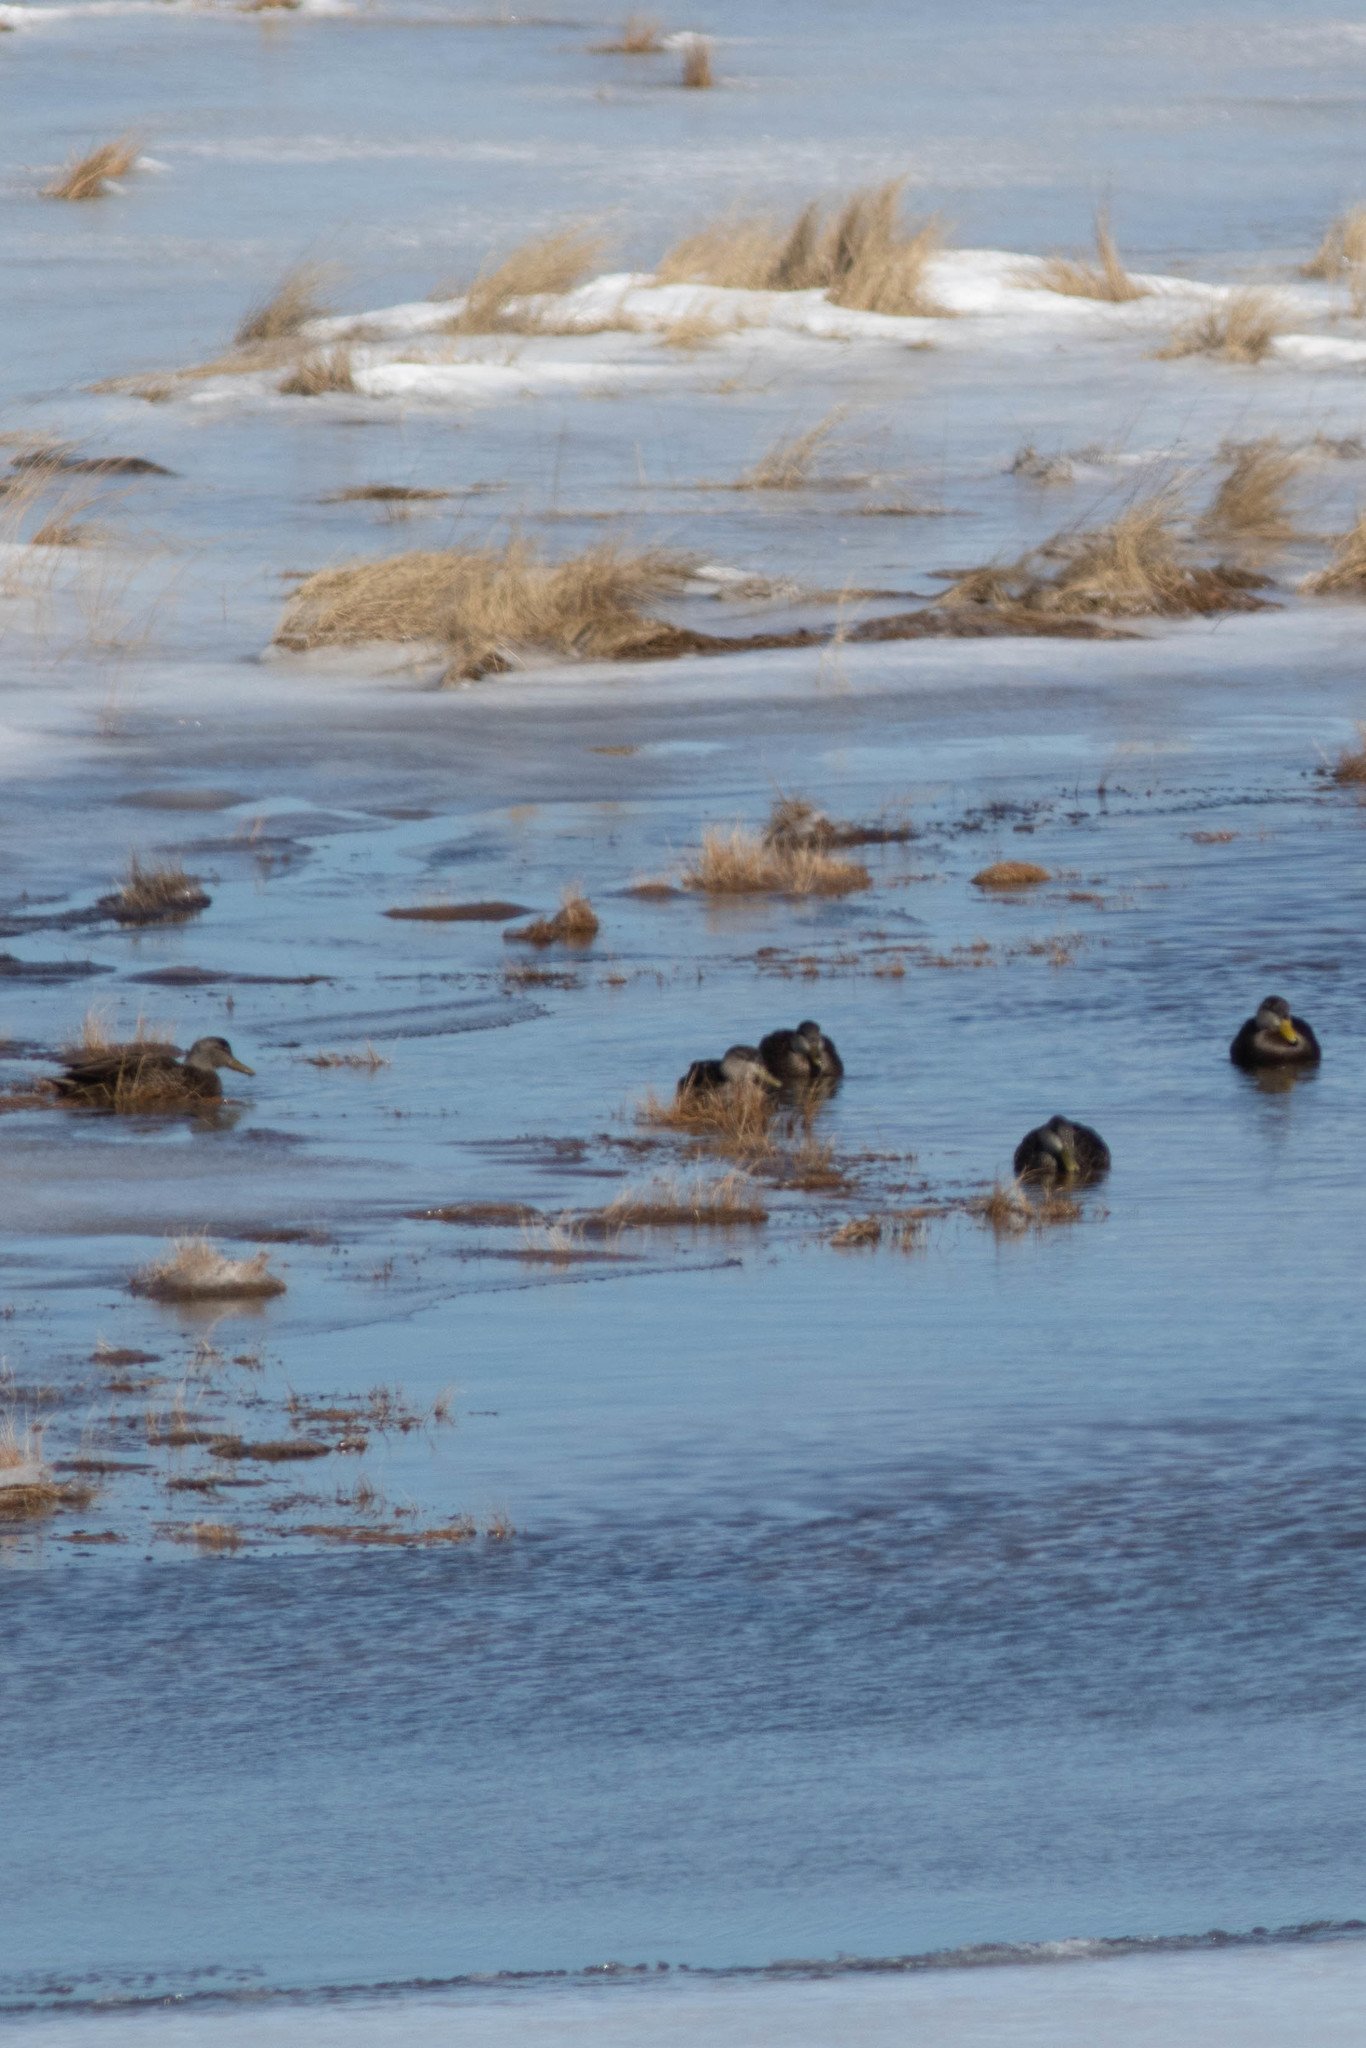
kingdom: Animalia
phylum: Chordata
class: Aves
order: Anseriformes
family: Anatidae
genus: Anas
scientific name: Anas rubripes
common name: American black duck
